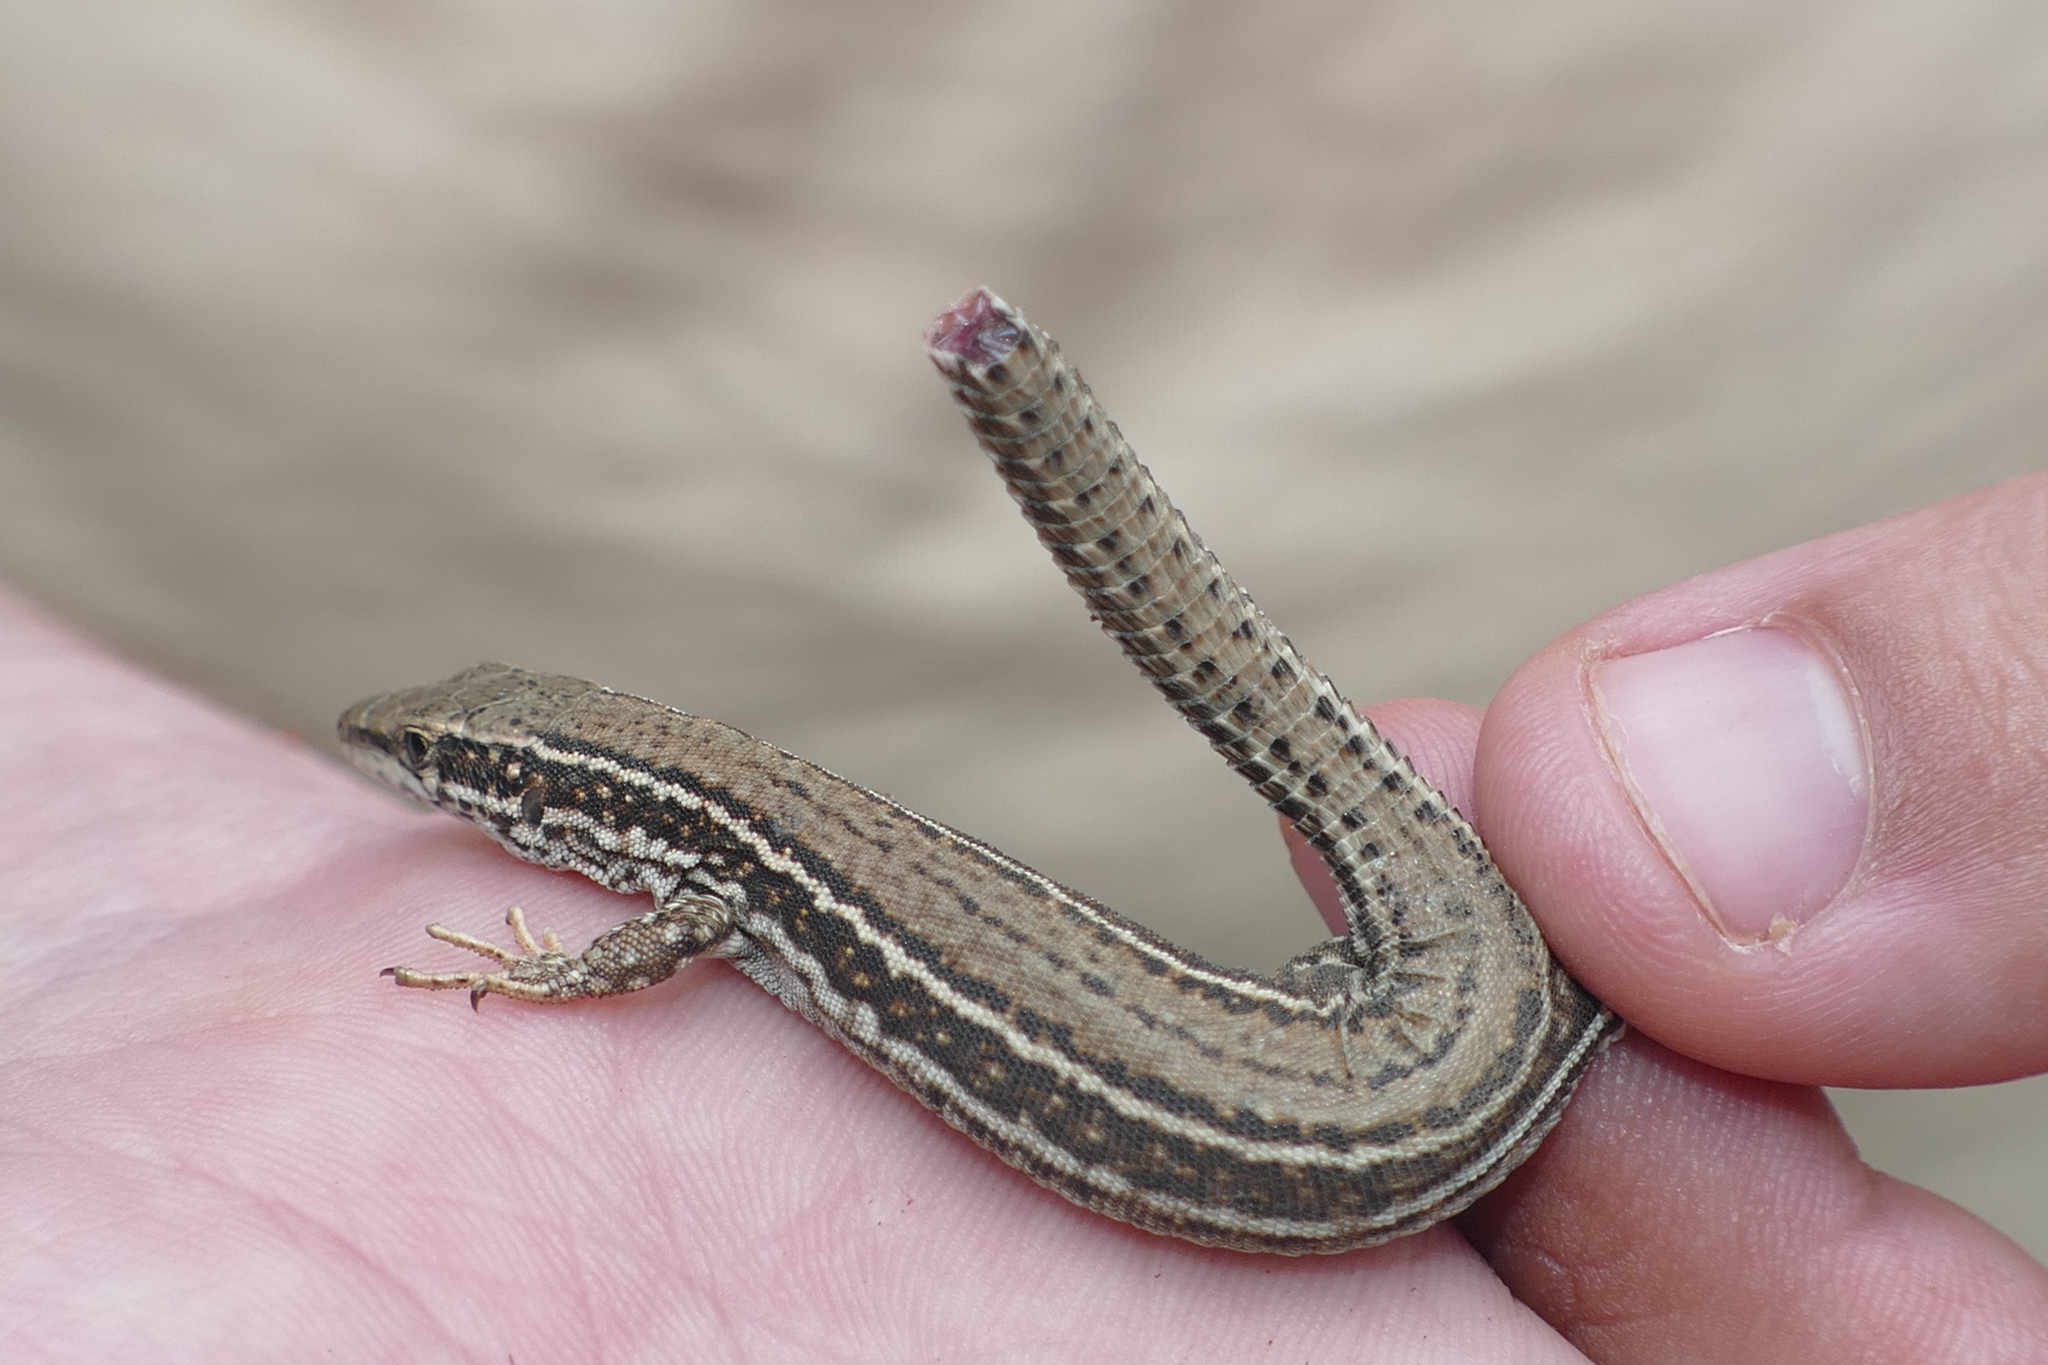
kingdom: Animalia
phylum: Chordata
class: Squamata
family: Lacertidae
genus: Podarcis
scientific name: Podarcis liolepis
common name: Catalonian wall lizard
